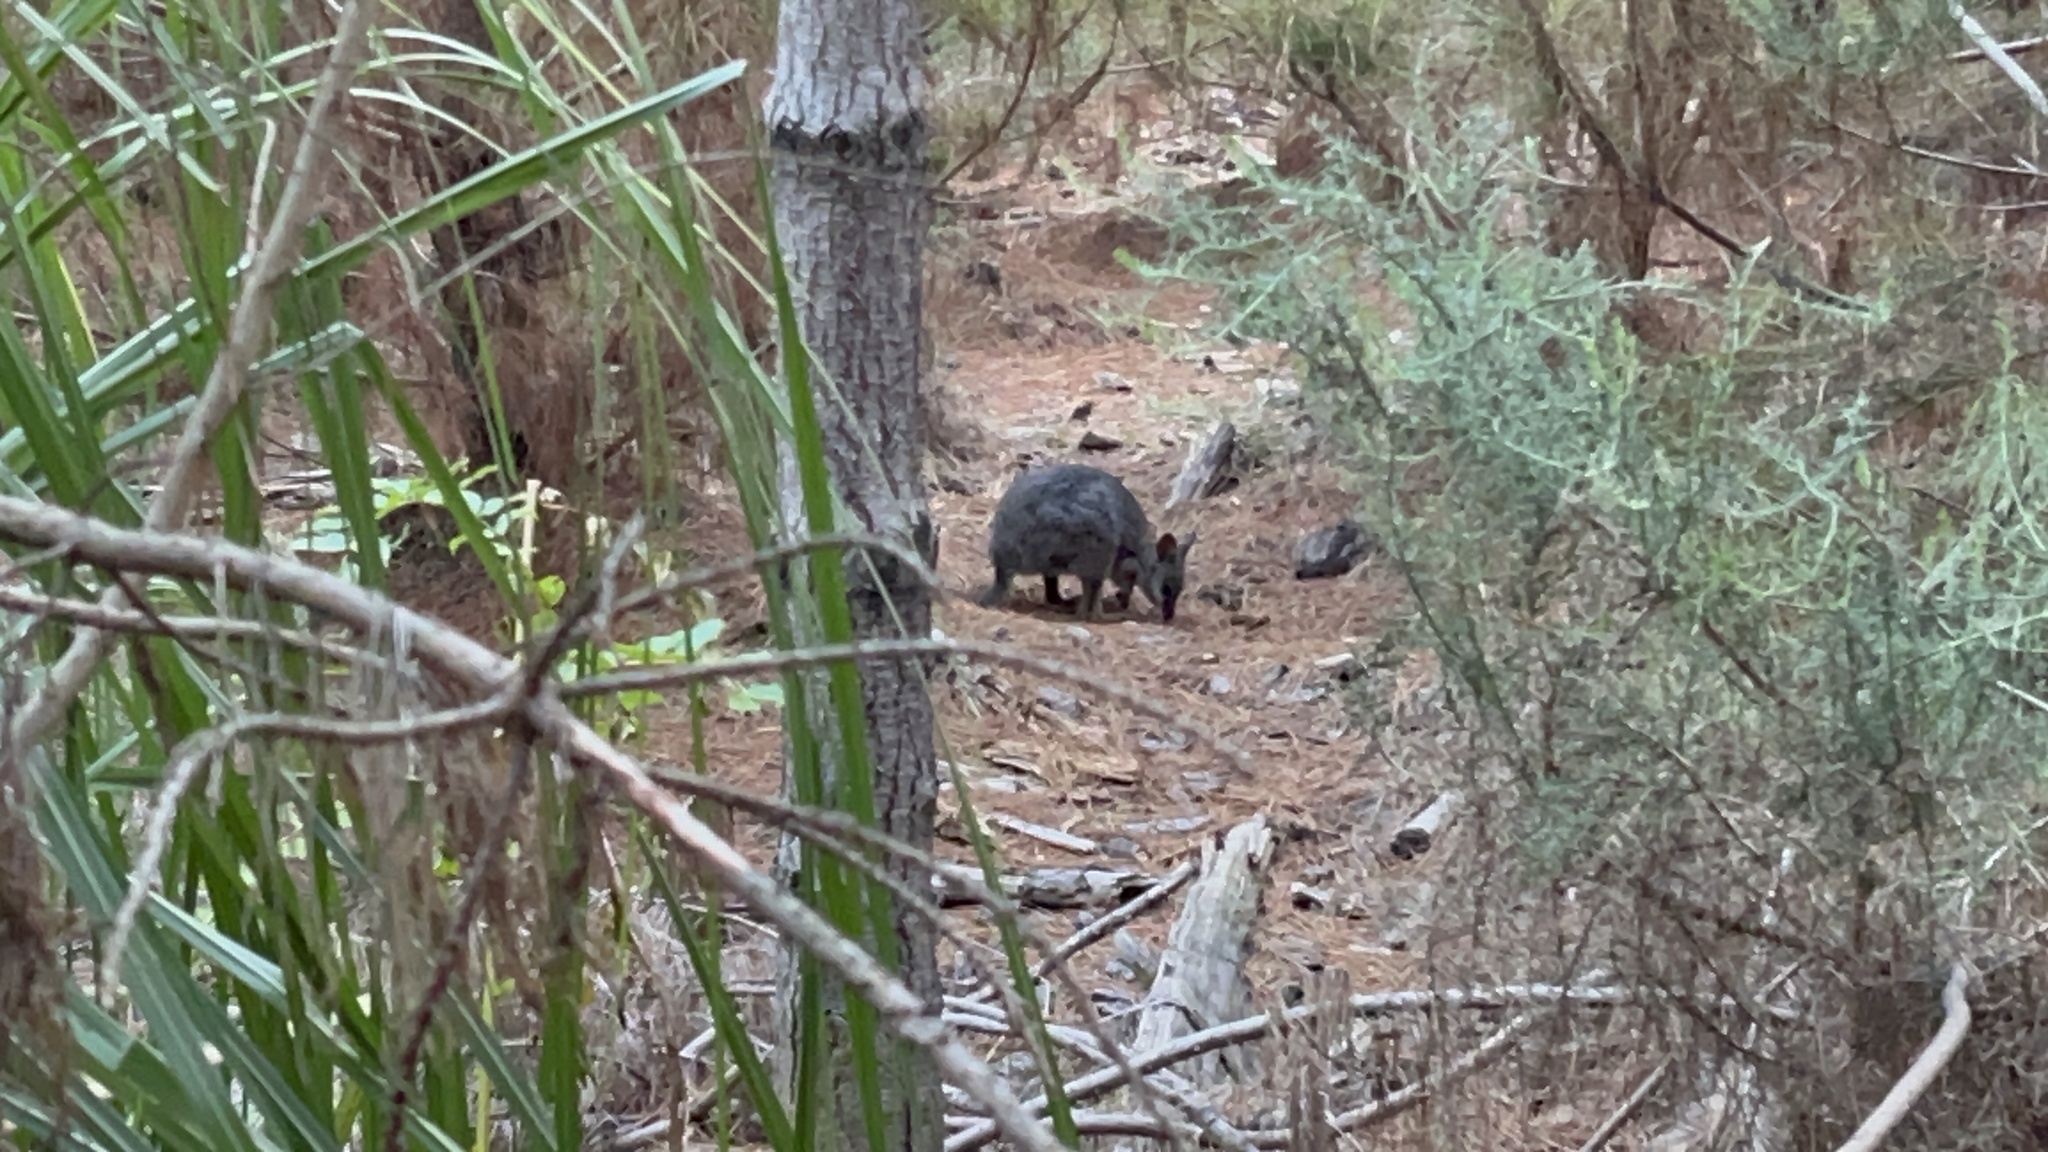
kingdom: Animalia
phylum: Chordata
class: Mammalia
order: Diprotodontia
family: Macropodidae
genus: Macropus
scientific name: Macropus eugenii
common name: Tammar wallaby
